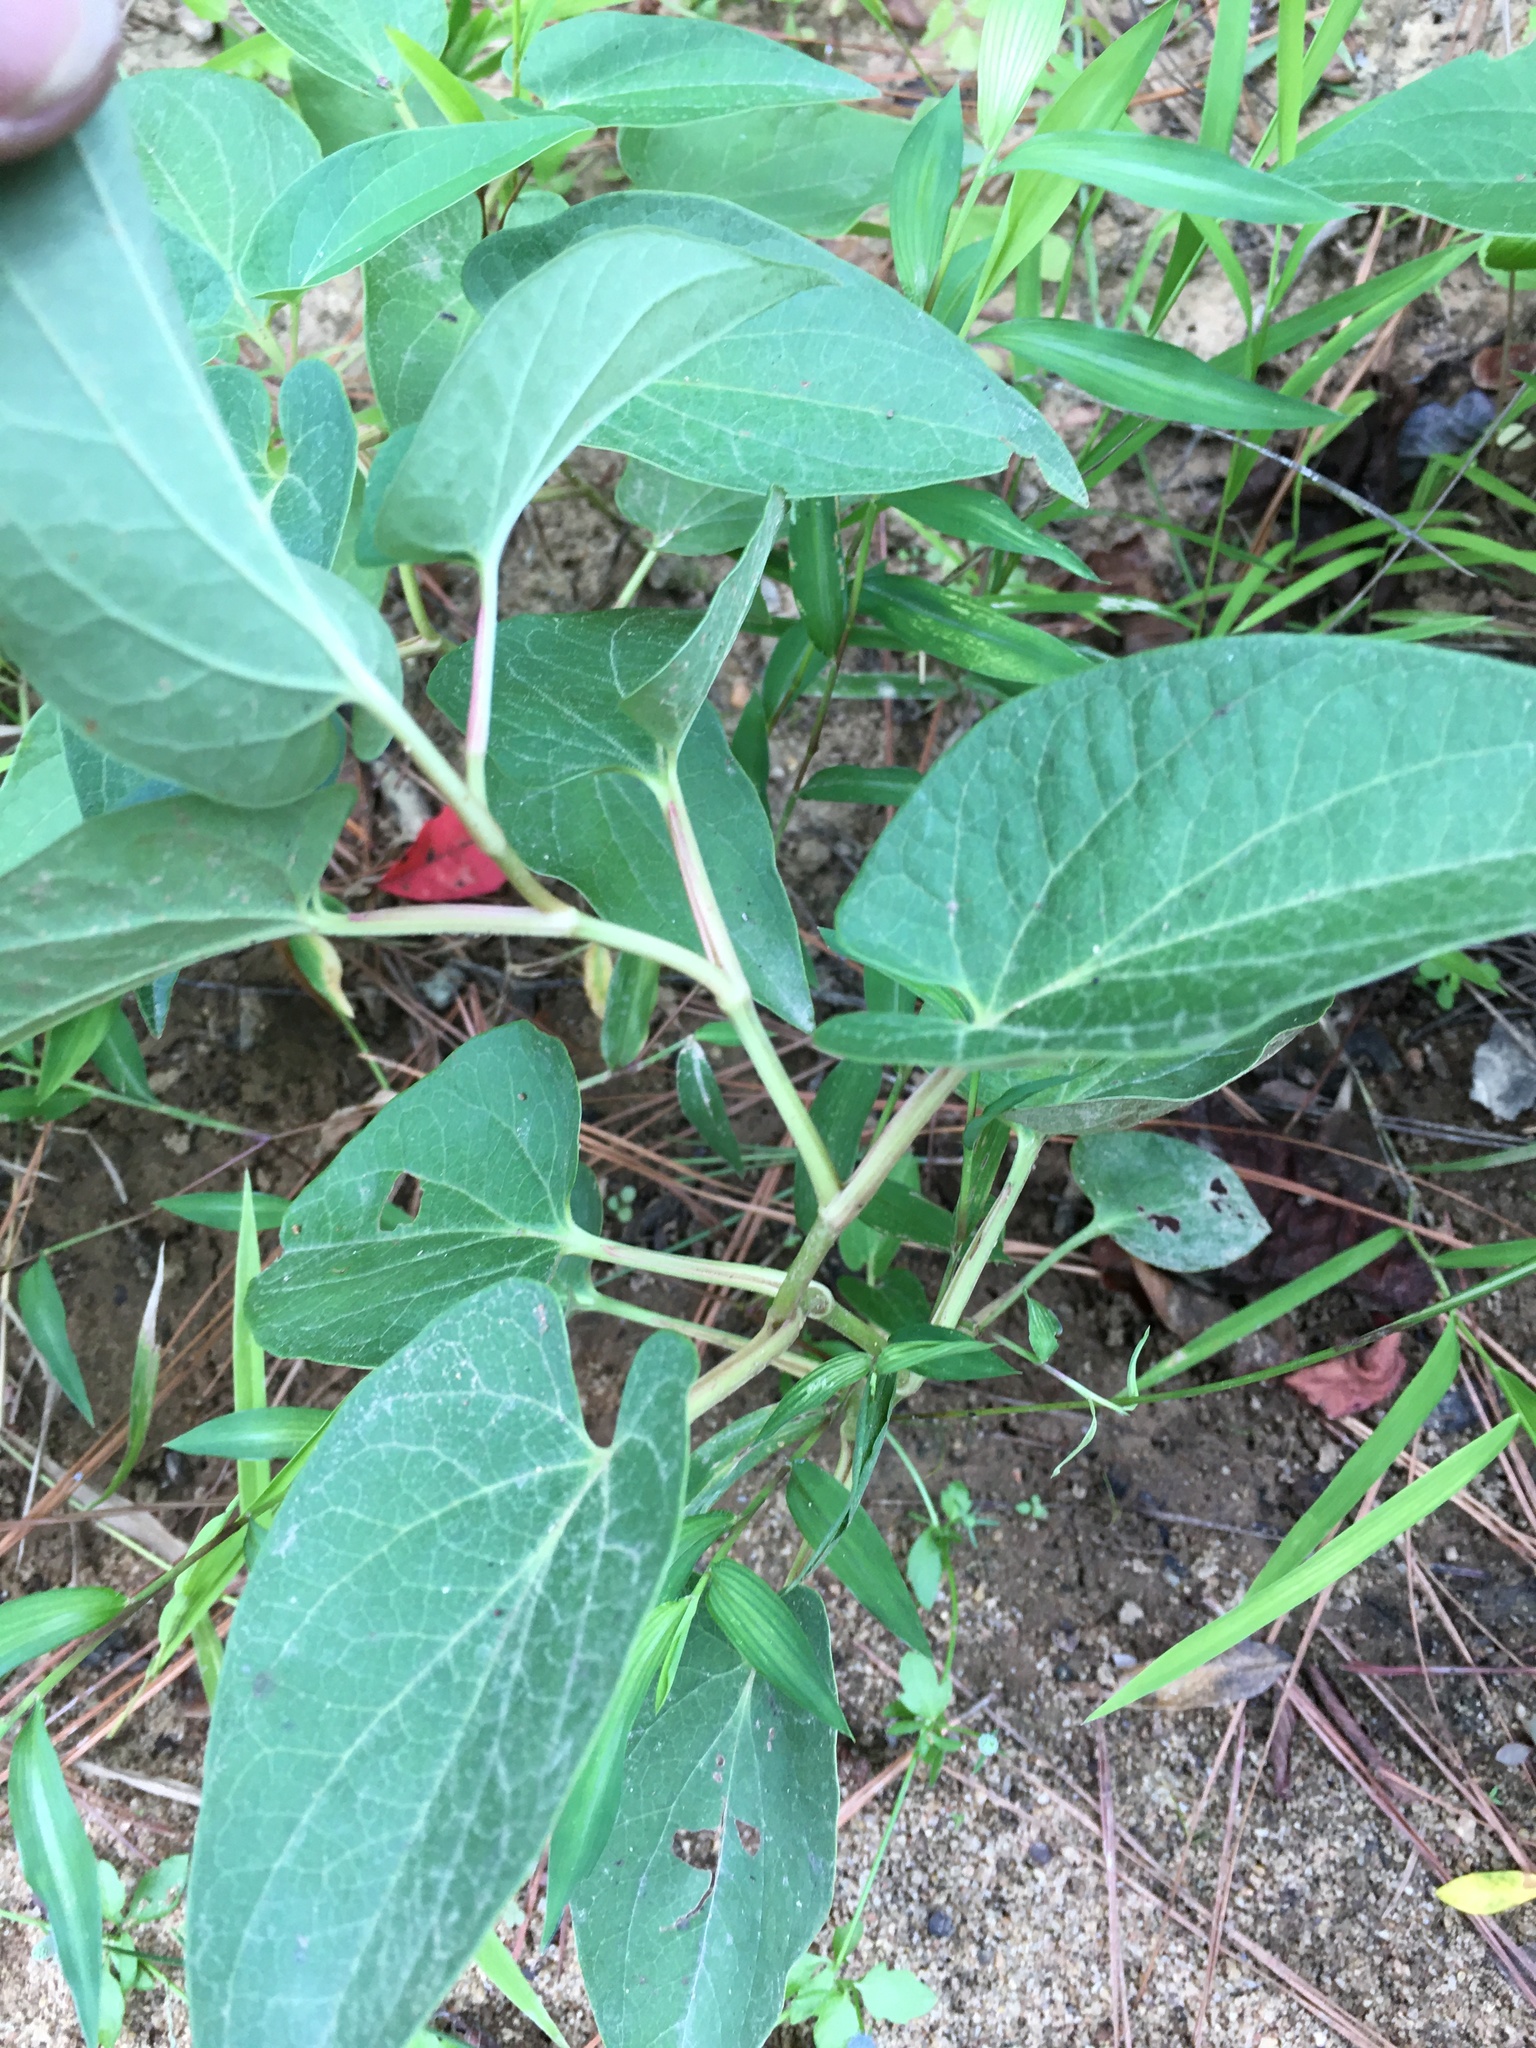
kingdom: Plantae
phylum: Tracheophyta
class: Magnoliopsida
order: Piperales
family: Saururaceae
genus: Saururus
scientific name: Saururus cernuus
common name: Lizard's-tail
